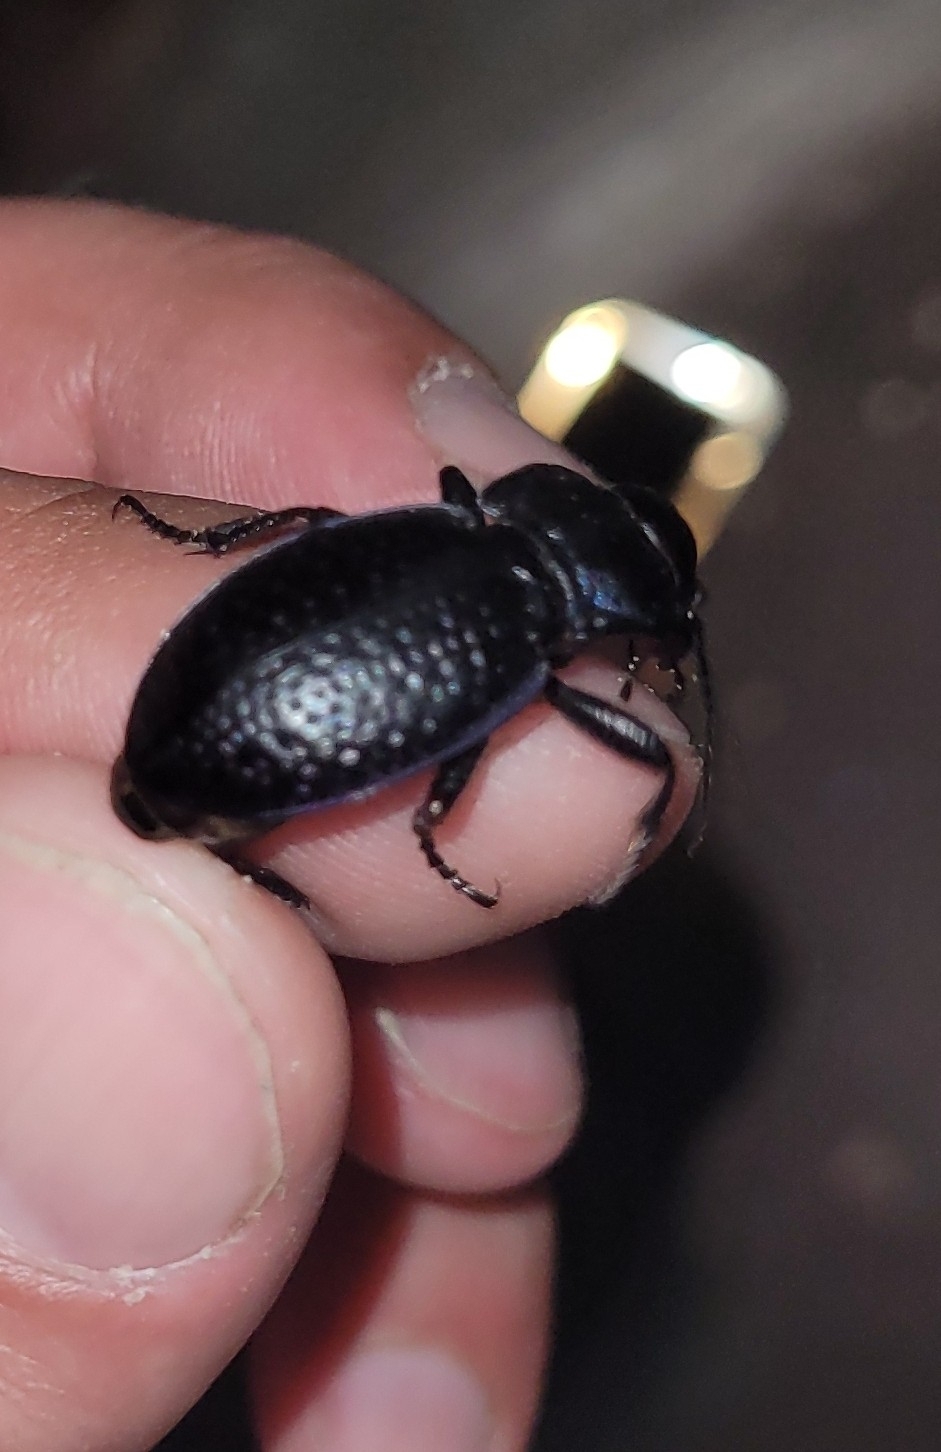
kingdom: Animalia
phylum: Arthropoda
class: Insecta
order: Coleoptera
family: Carabidae
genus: Carabus
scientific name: Carabus cicatricosus
